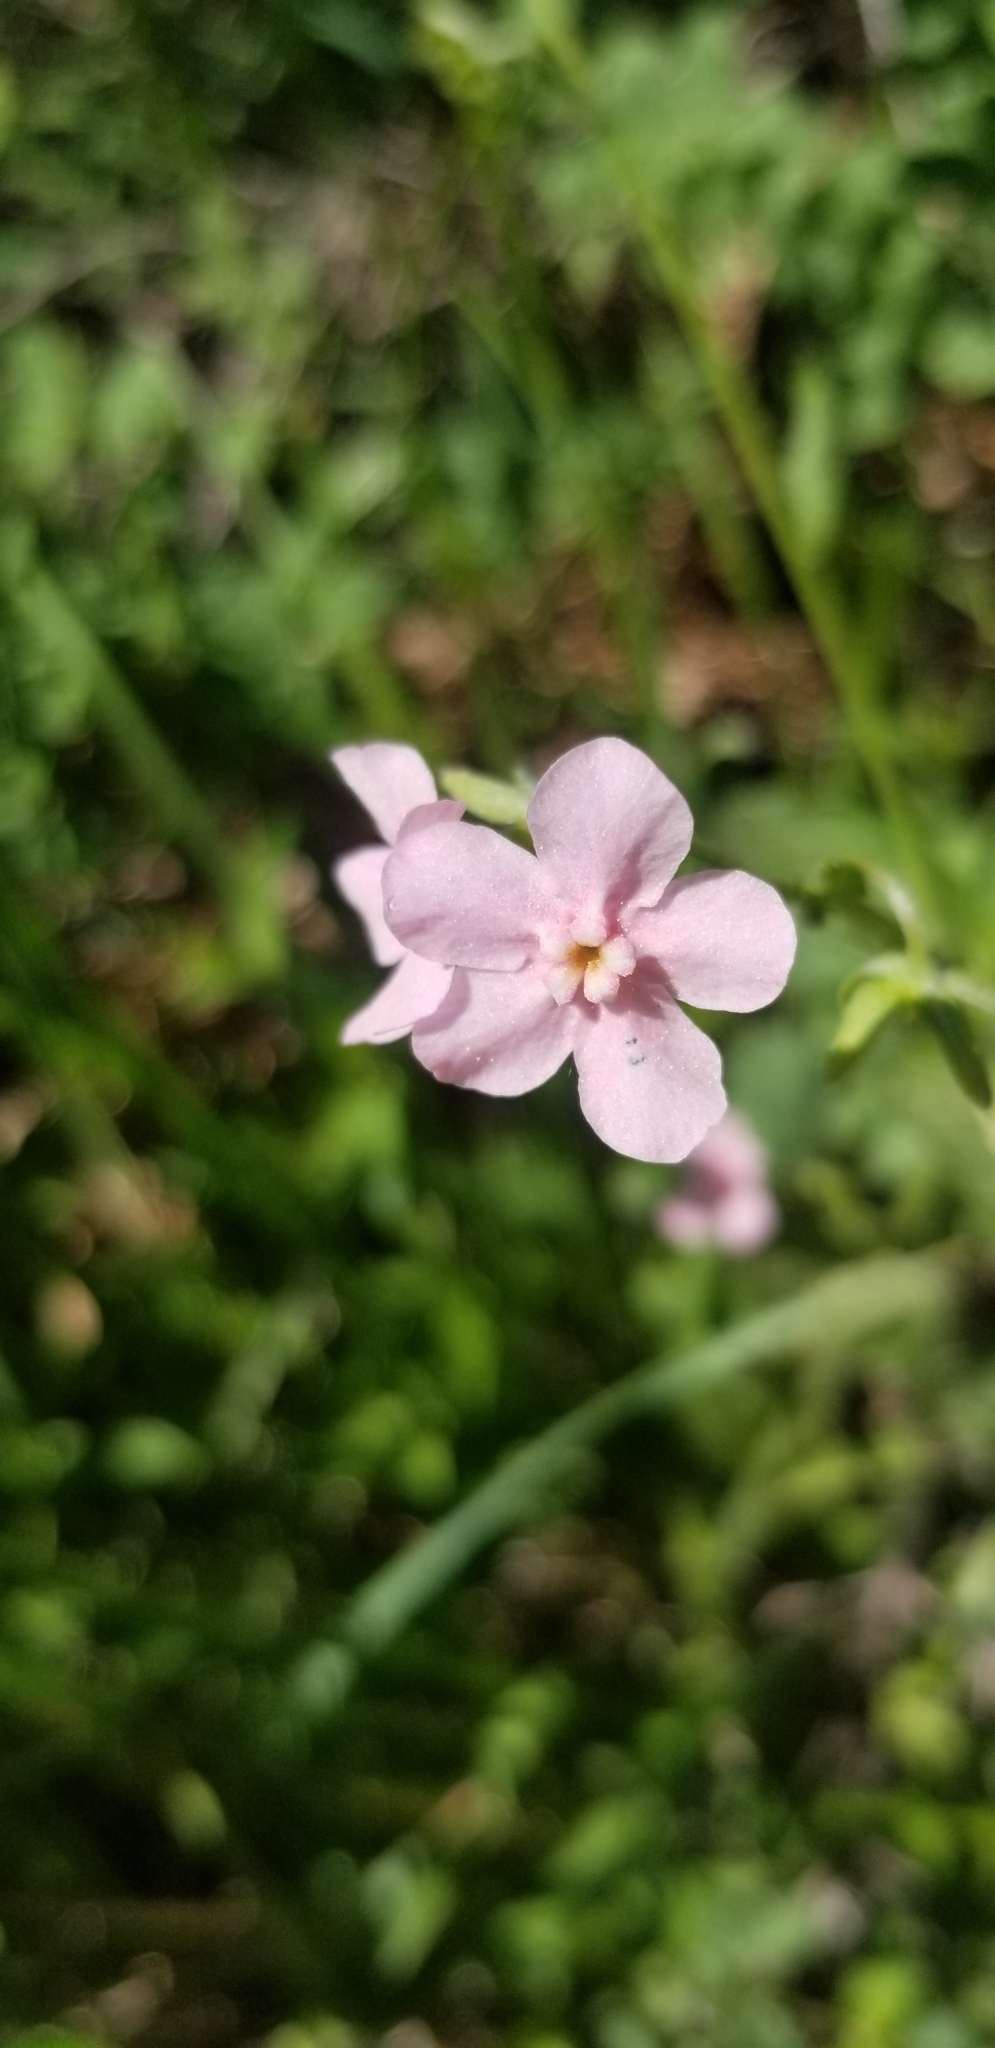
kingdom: Plantae
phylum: Tracheophyta
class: Magnoliopsida
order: Boraginales
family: Boraginaceae
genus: Hackelia
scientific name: Hackelia mundula
